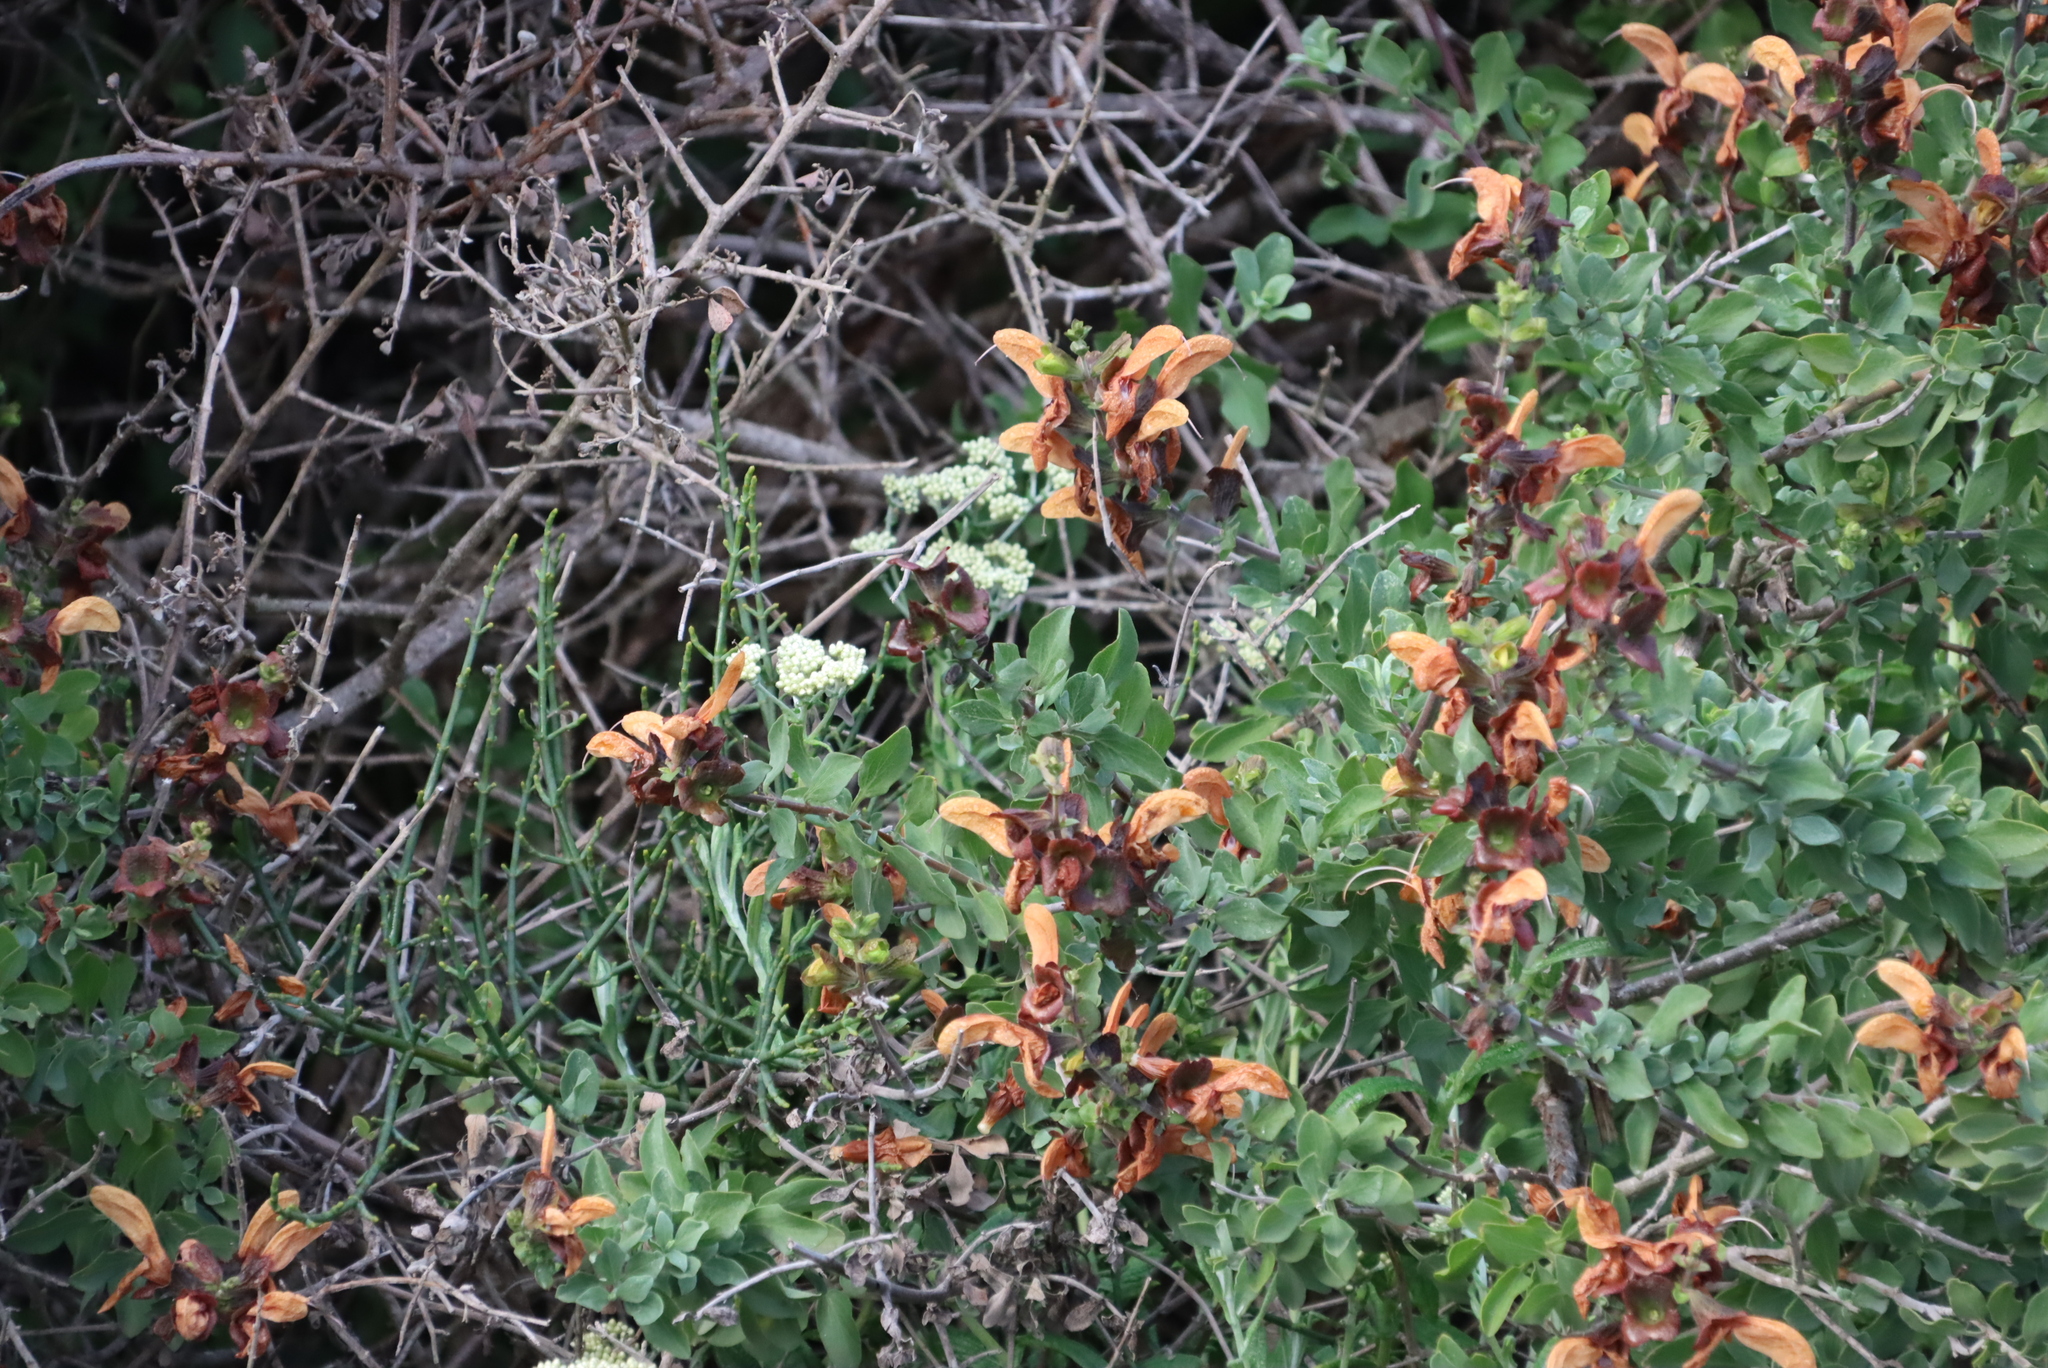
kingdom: Plantae
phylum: Tracheophyta
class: Magnoliopsida
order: Lamiales
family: Lamiaceae
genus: Salvia
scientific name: Salvia aurea
